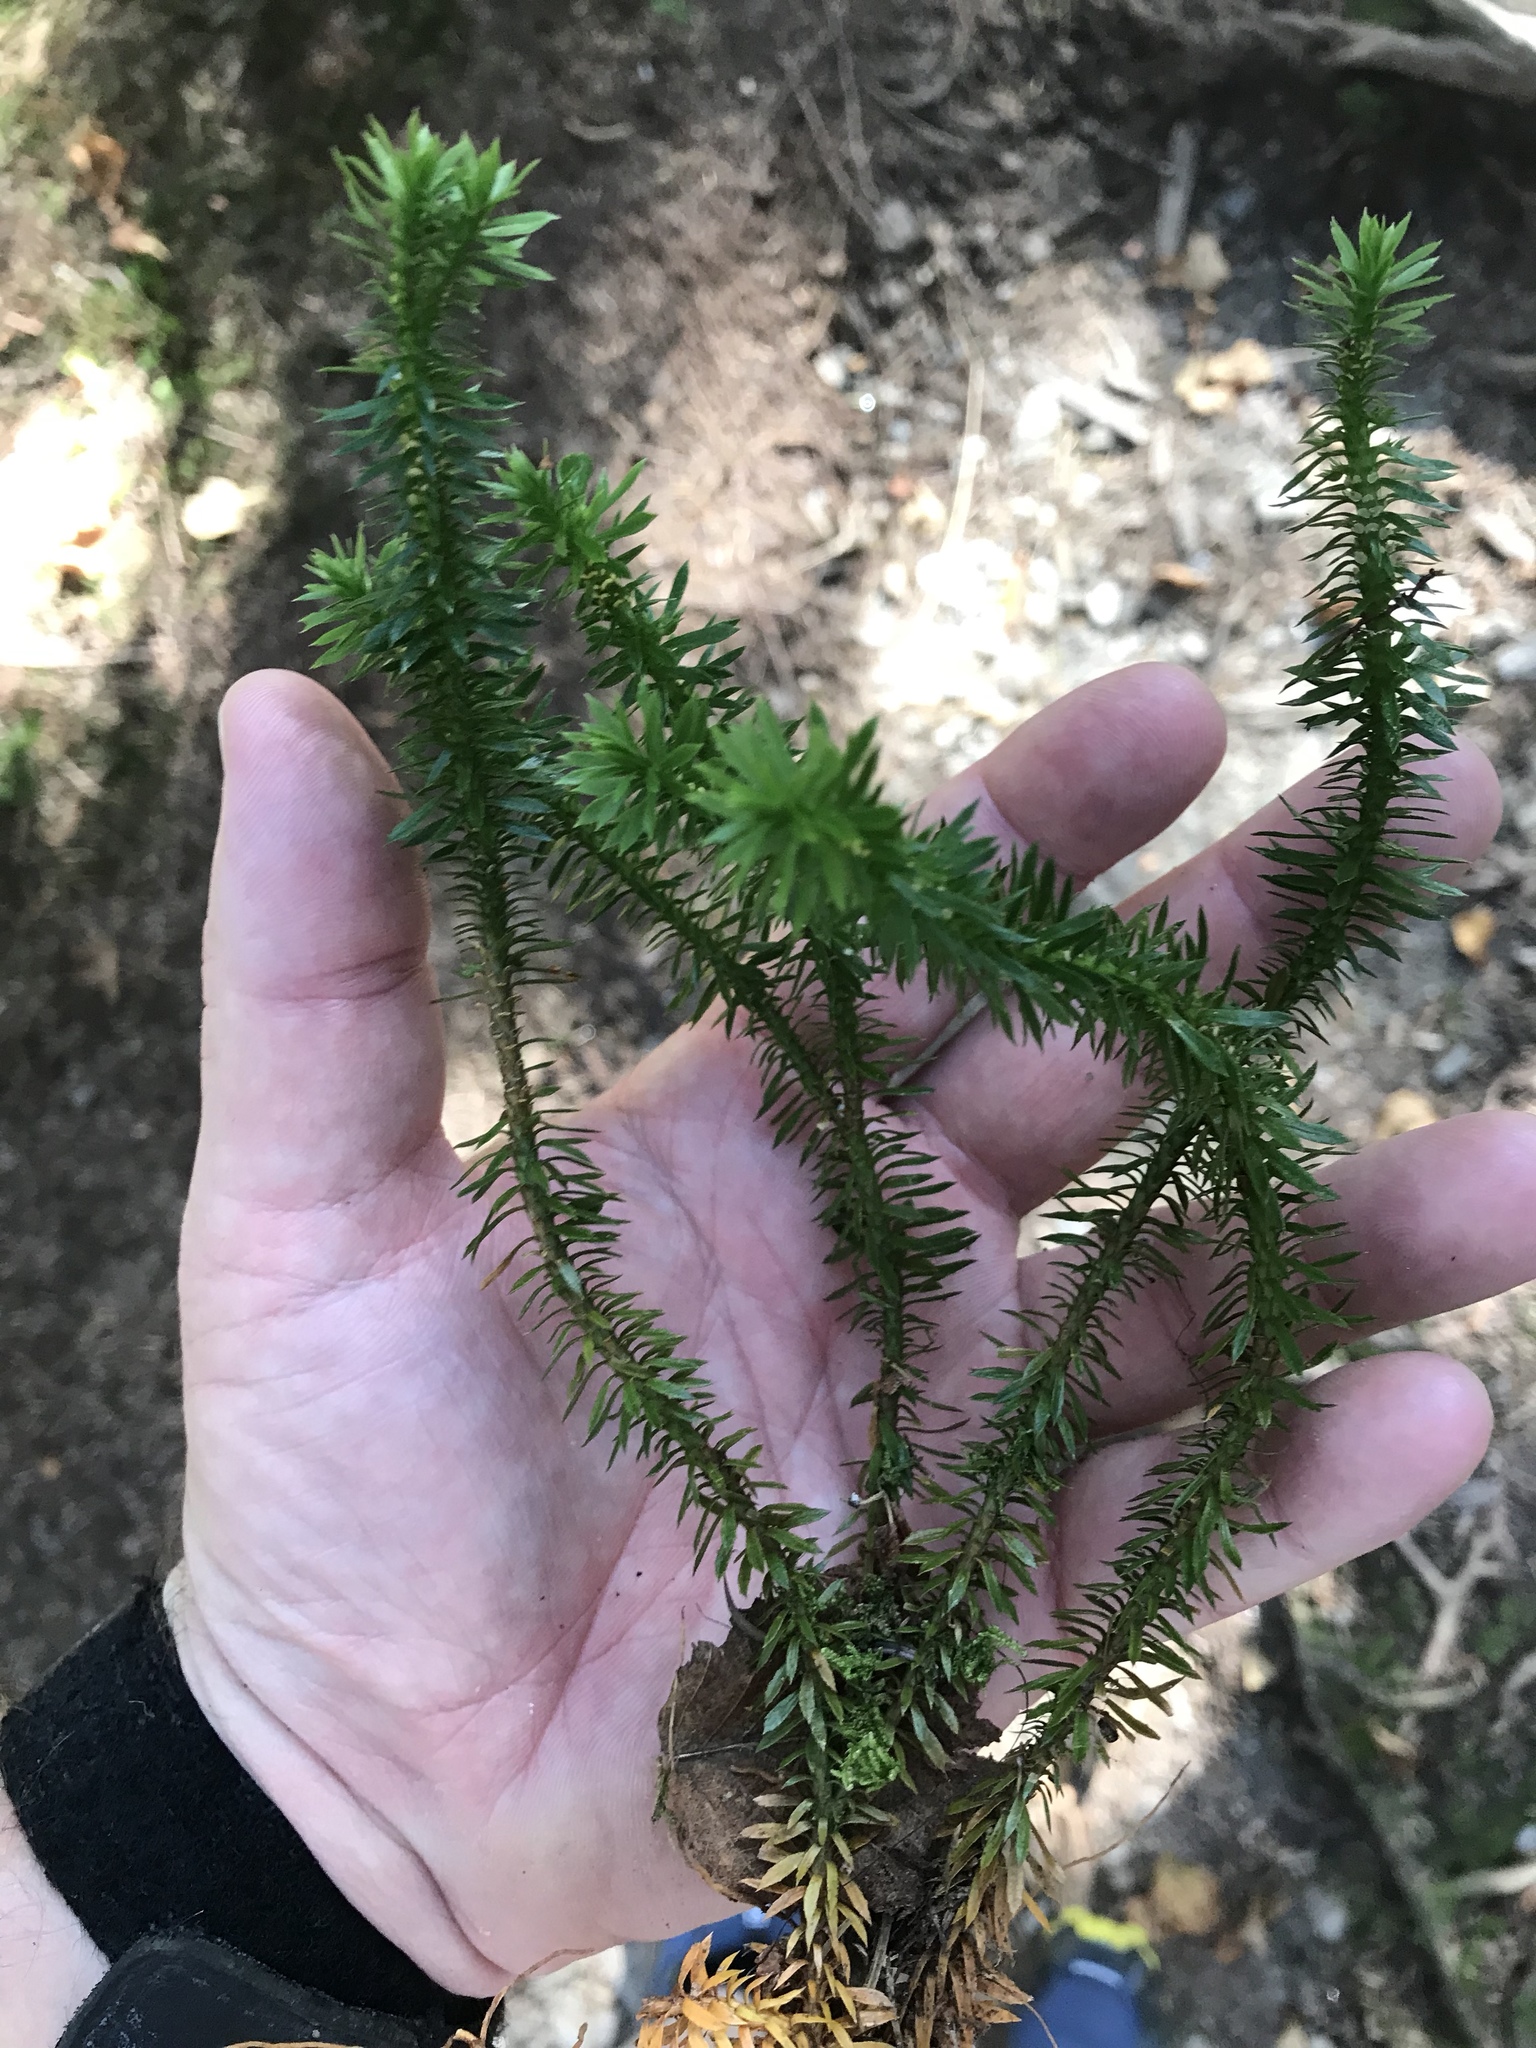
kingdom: Plantae
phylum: Tracheophyta
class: Lycopodiopsida
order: Lycopodiales
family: Lycopodiaceae
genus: Huperzia
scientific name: Huperzia lucidula
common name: Shining clubmoss
